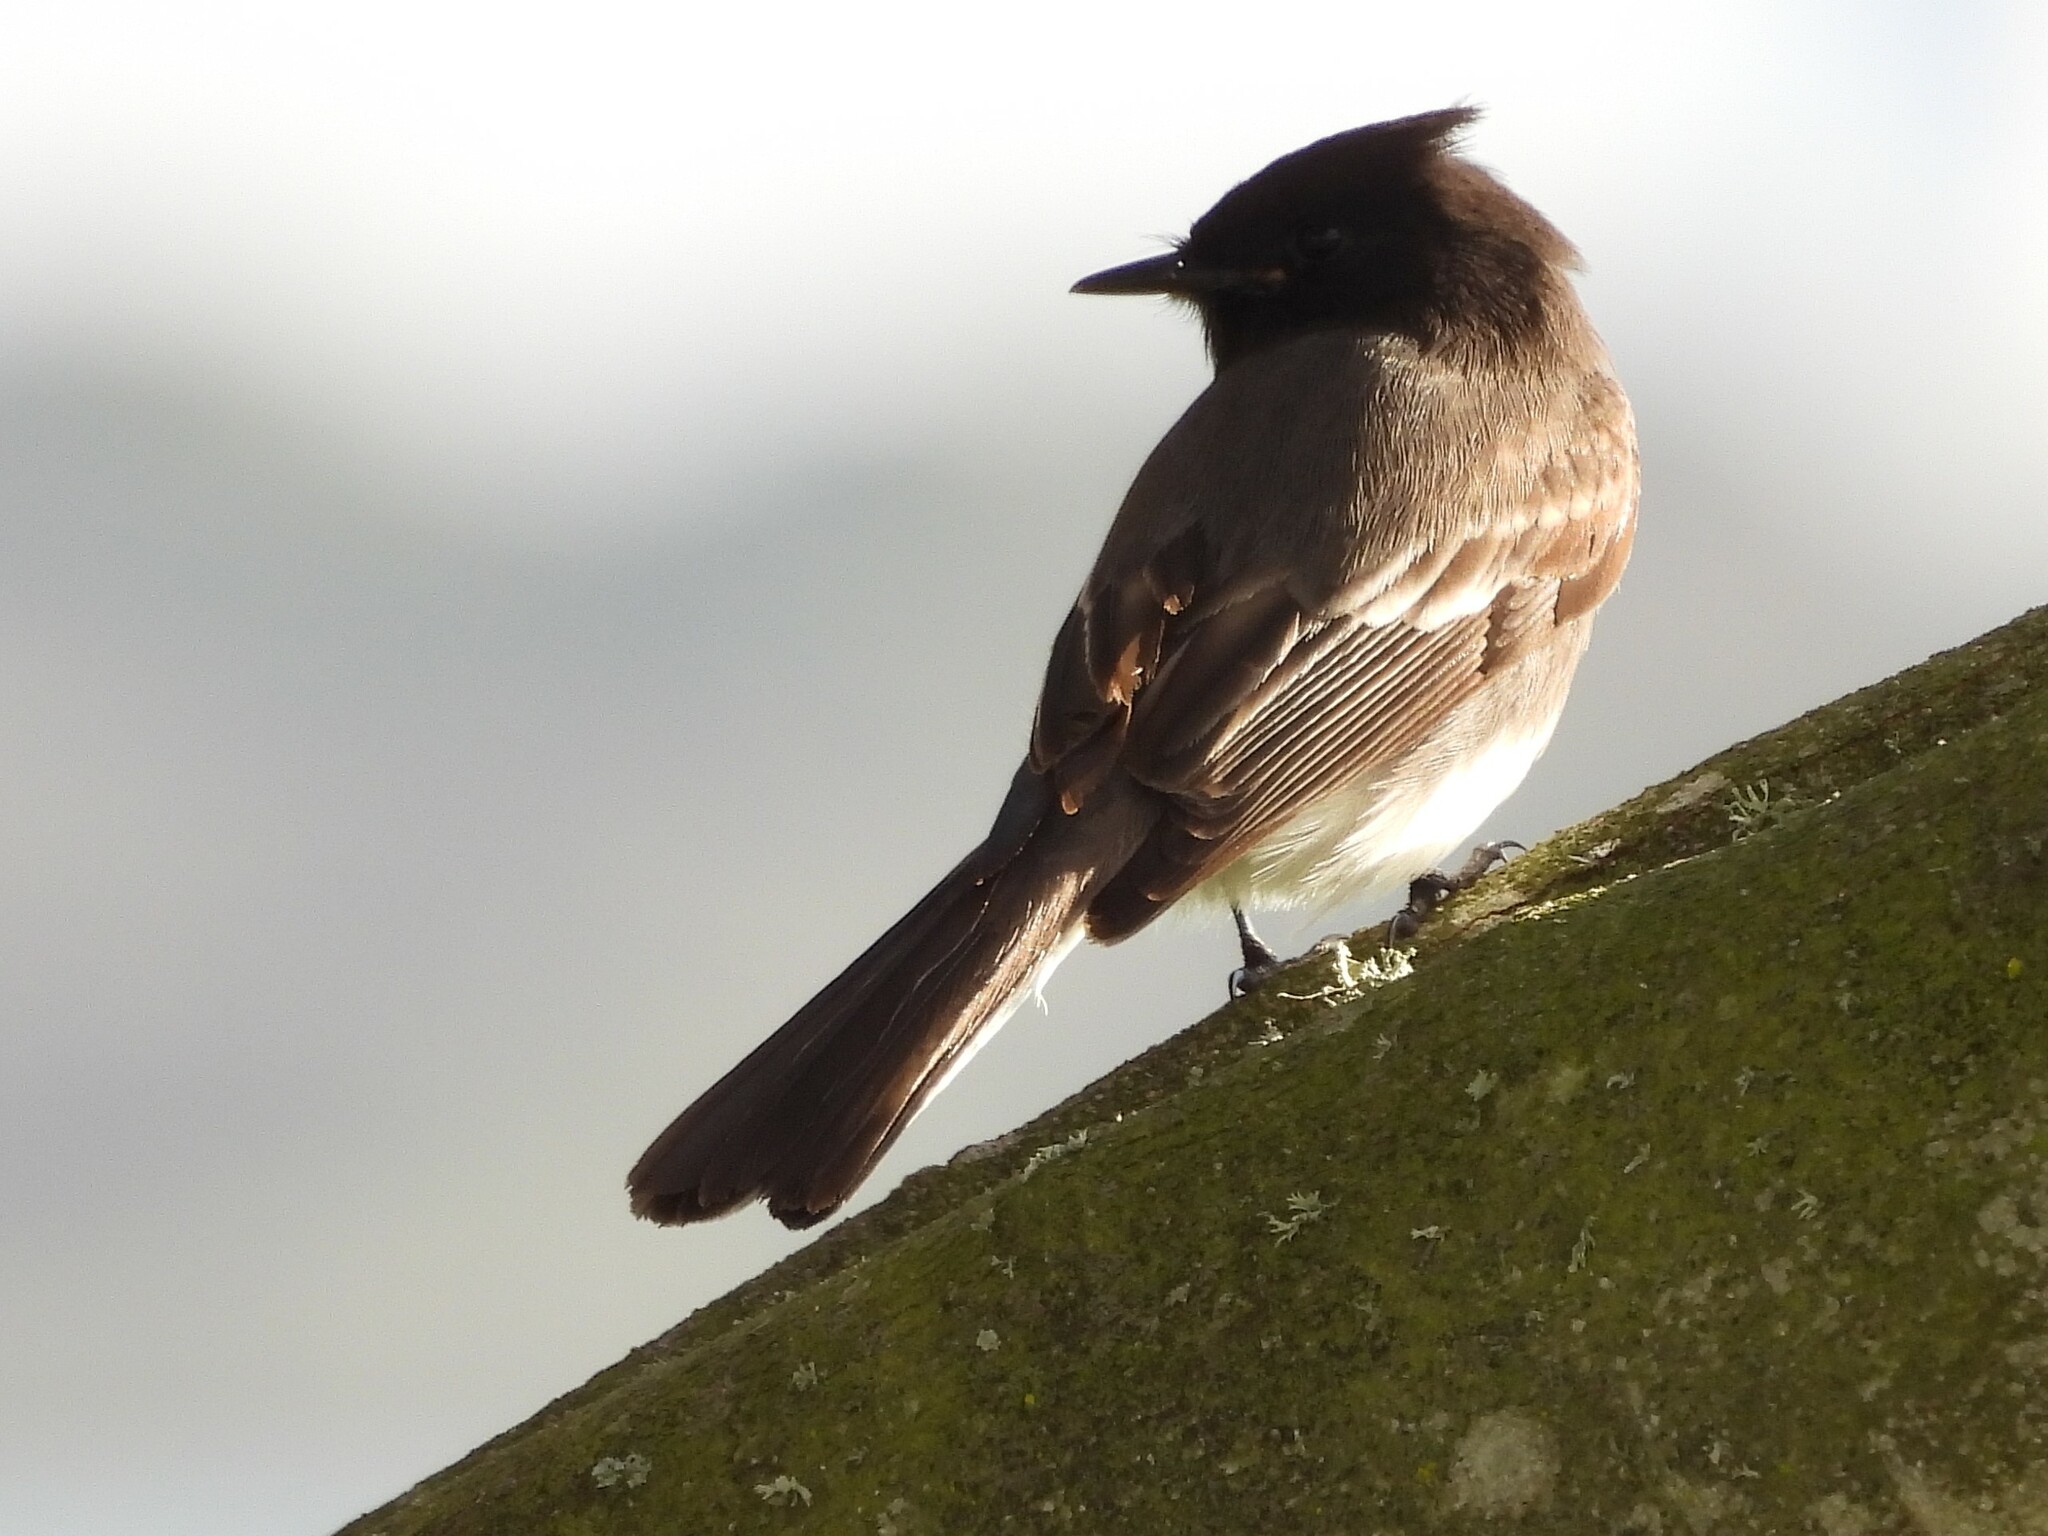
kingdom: Animalia
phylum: Chordata
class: Aves
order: Passeriformes
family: Tyrannidae
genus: Sayornis
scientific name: Sayornis nigricans
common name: Black phoebe
